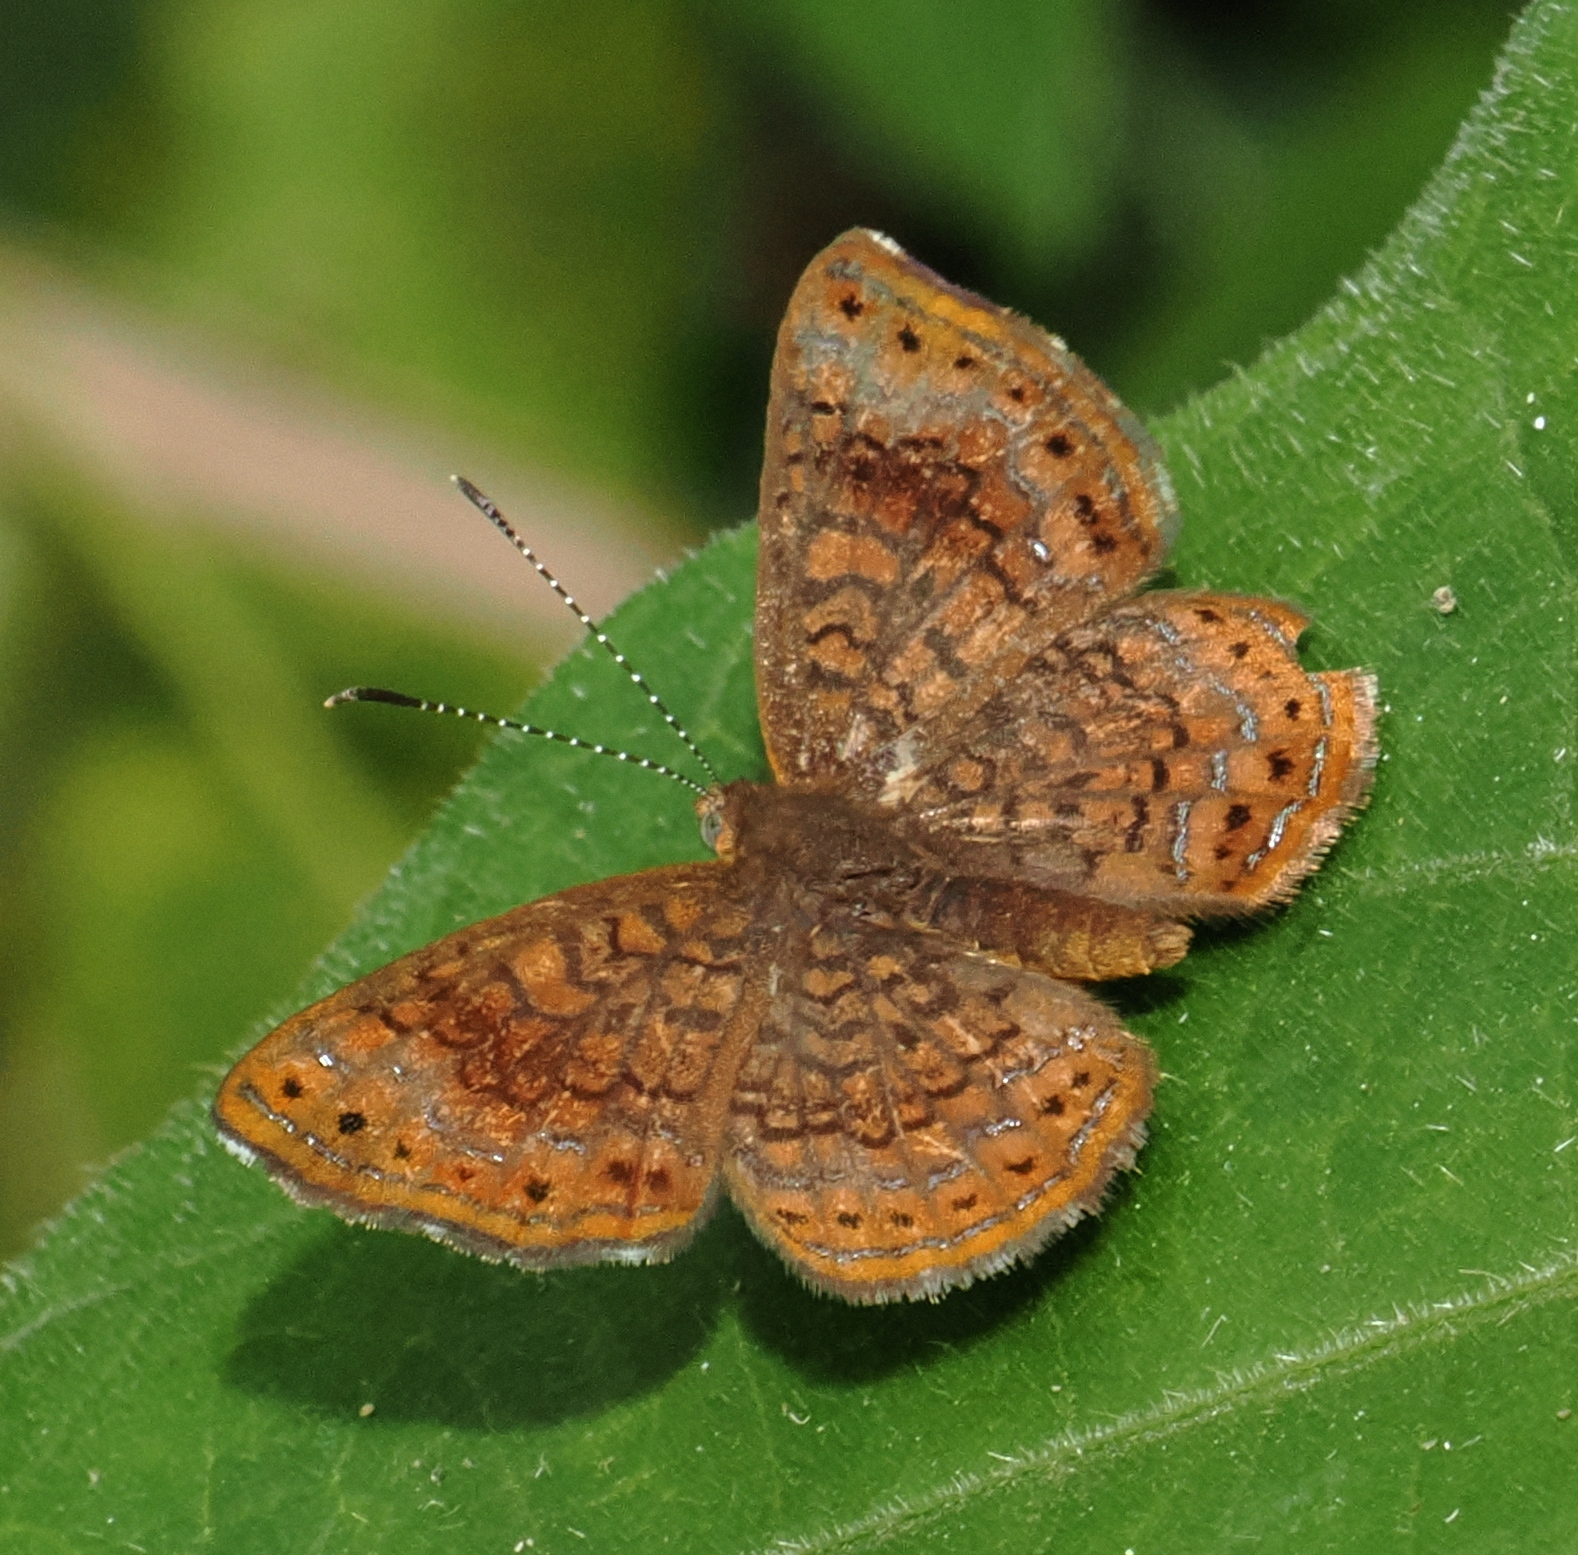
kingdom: Animalia
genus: Calephelis
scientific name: Calephelis laverna
